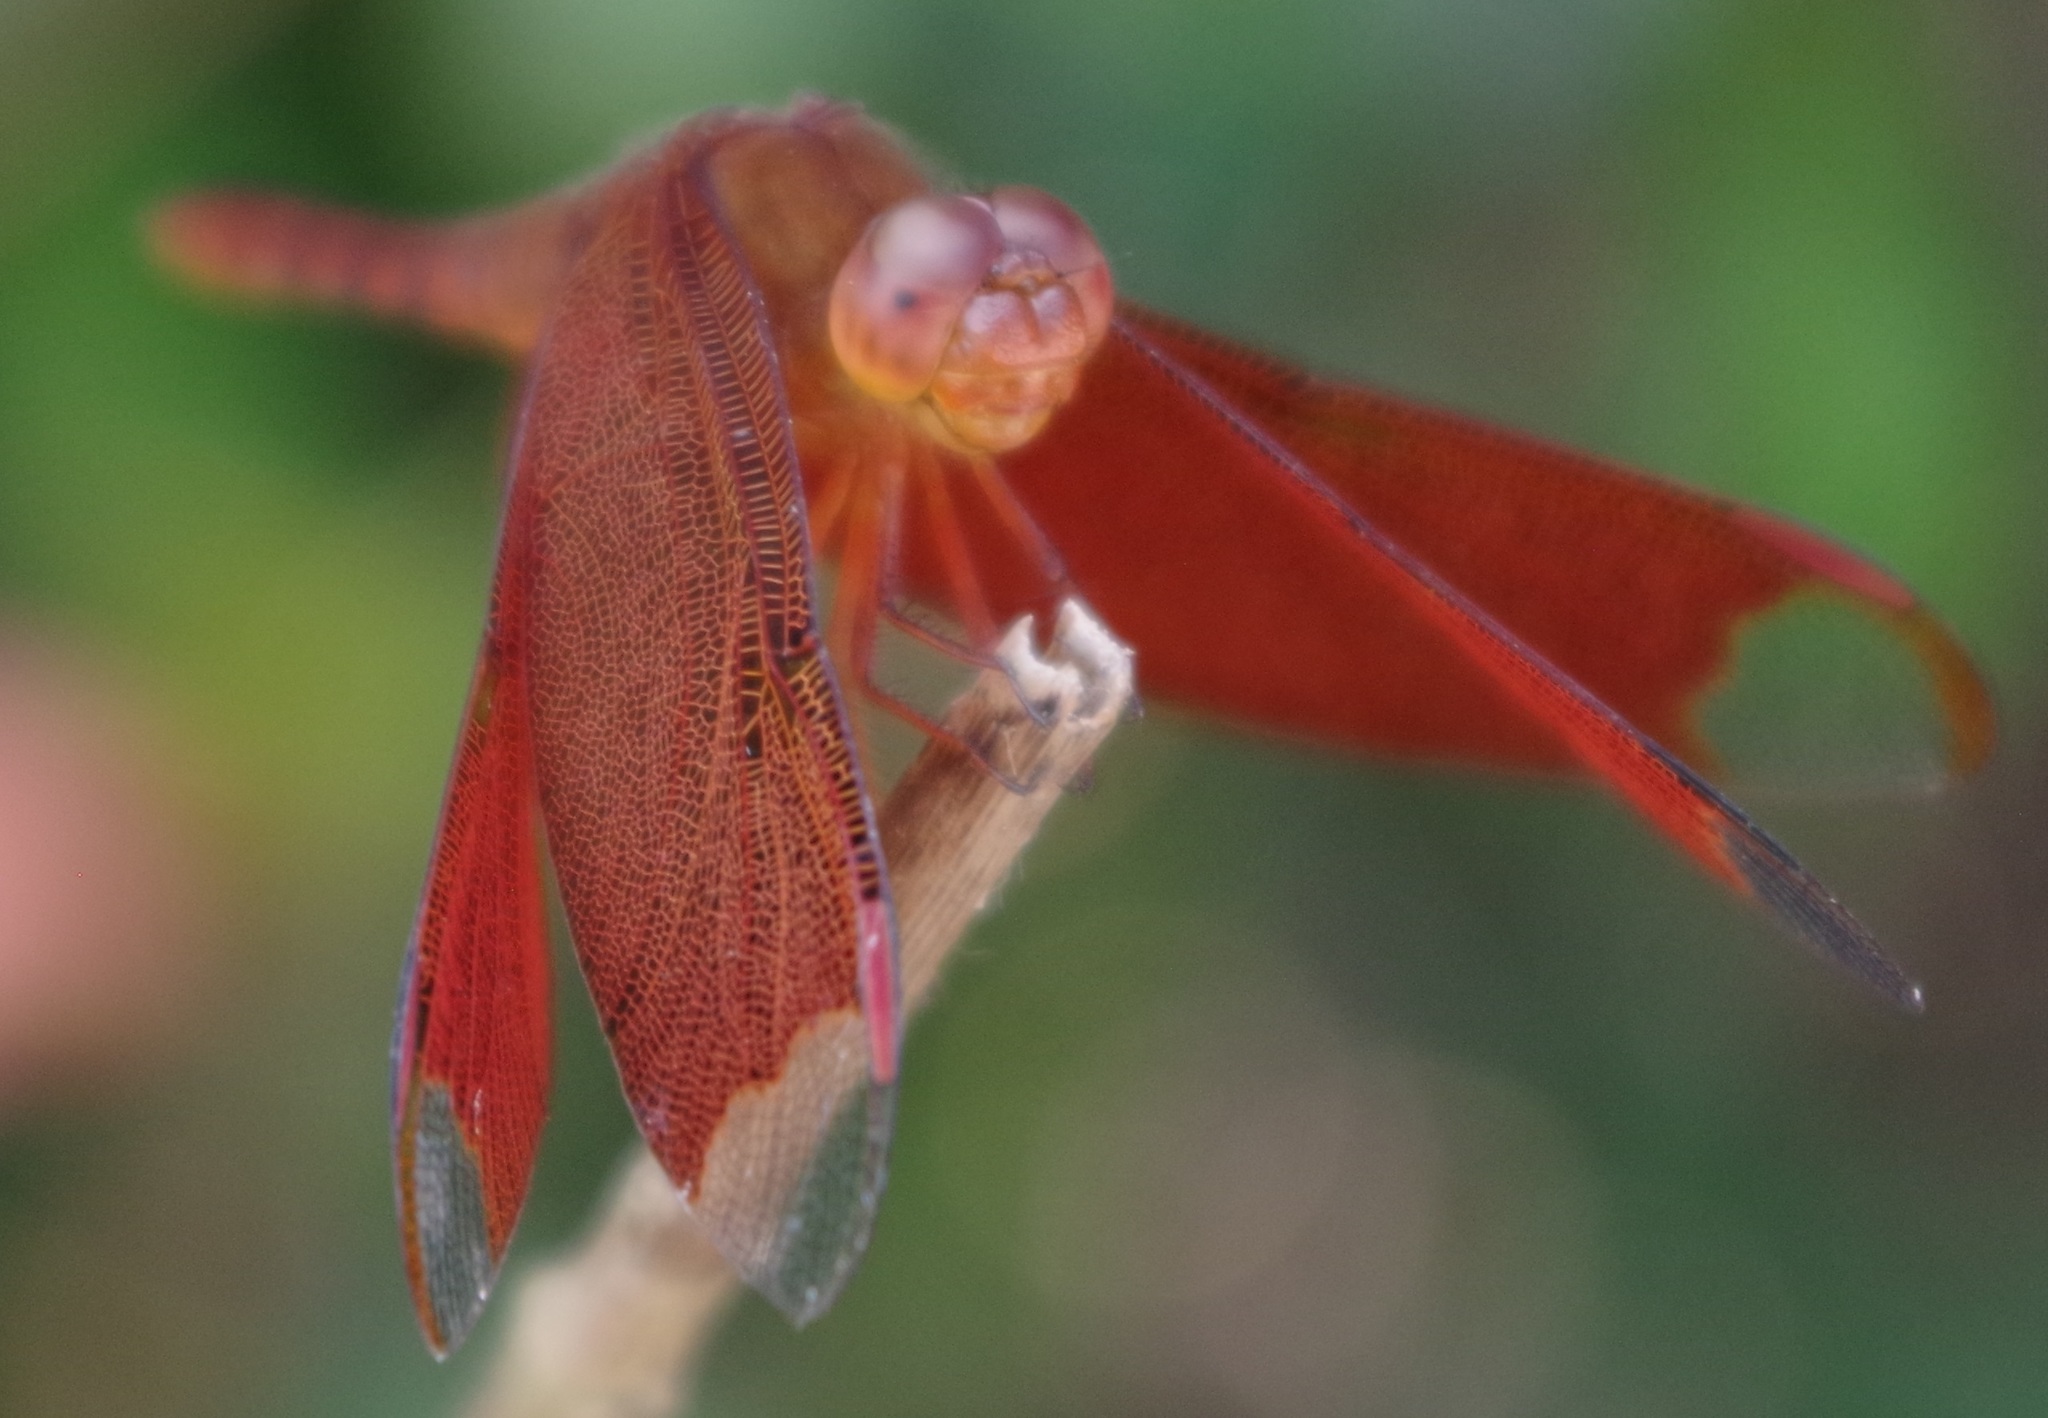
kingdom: Animalia
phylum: Arthropoda
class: Insecta
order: Odonata
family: Libellulidae
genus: Neurothemis
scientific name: Neurothemis fulvia
